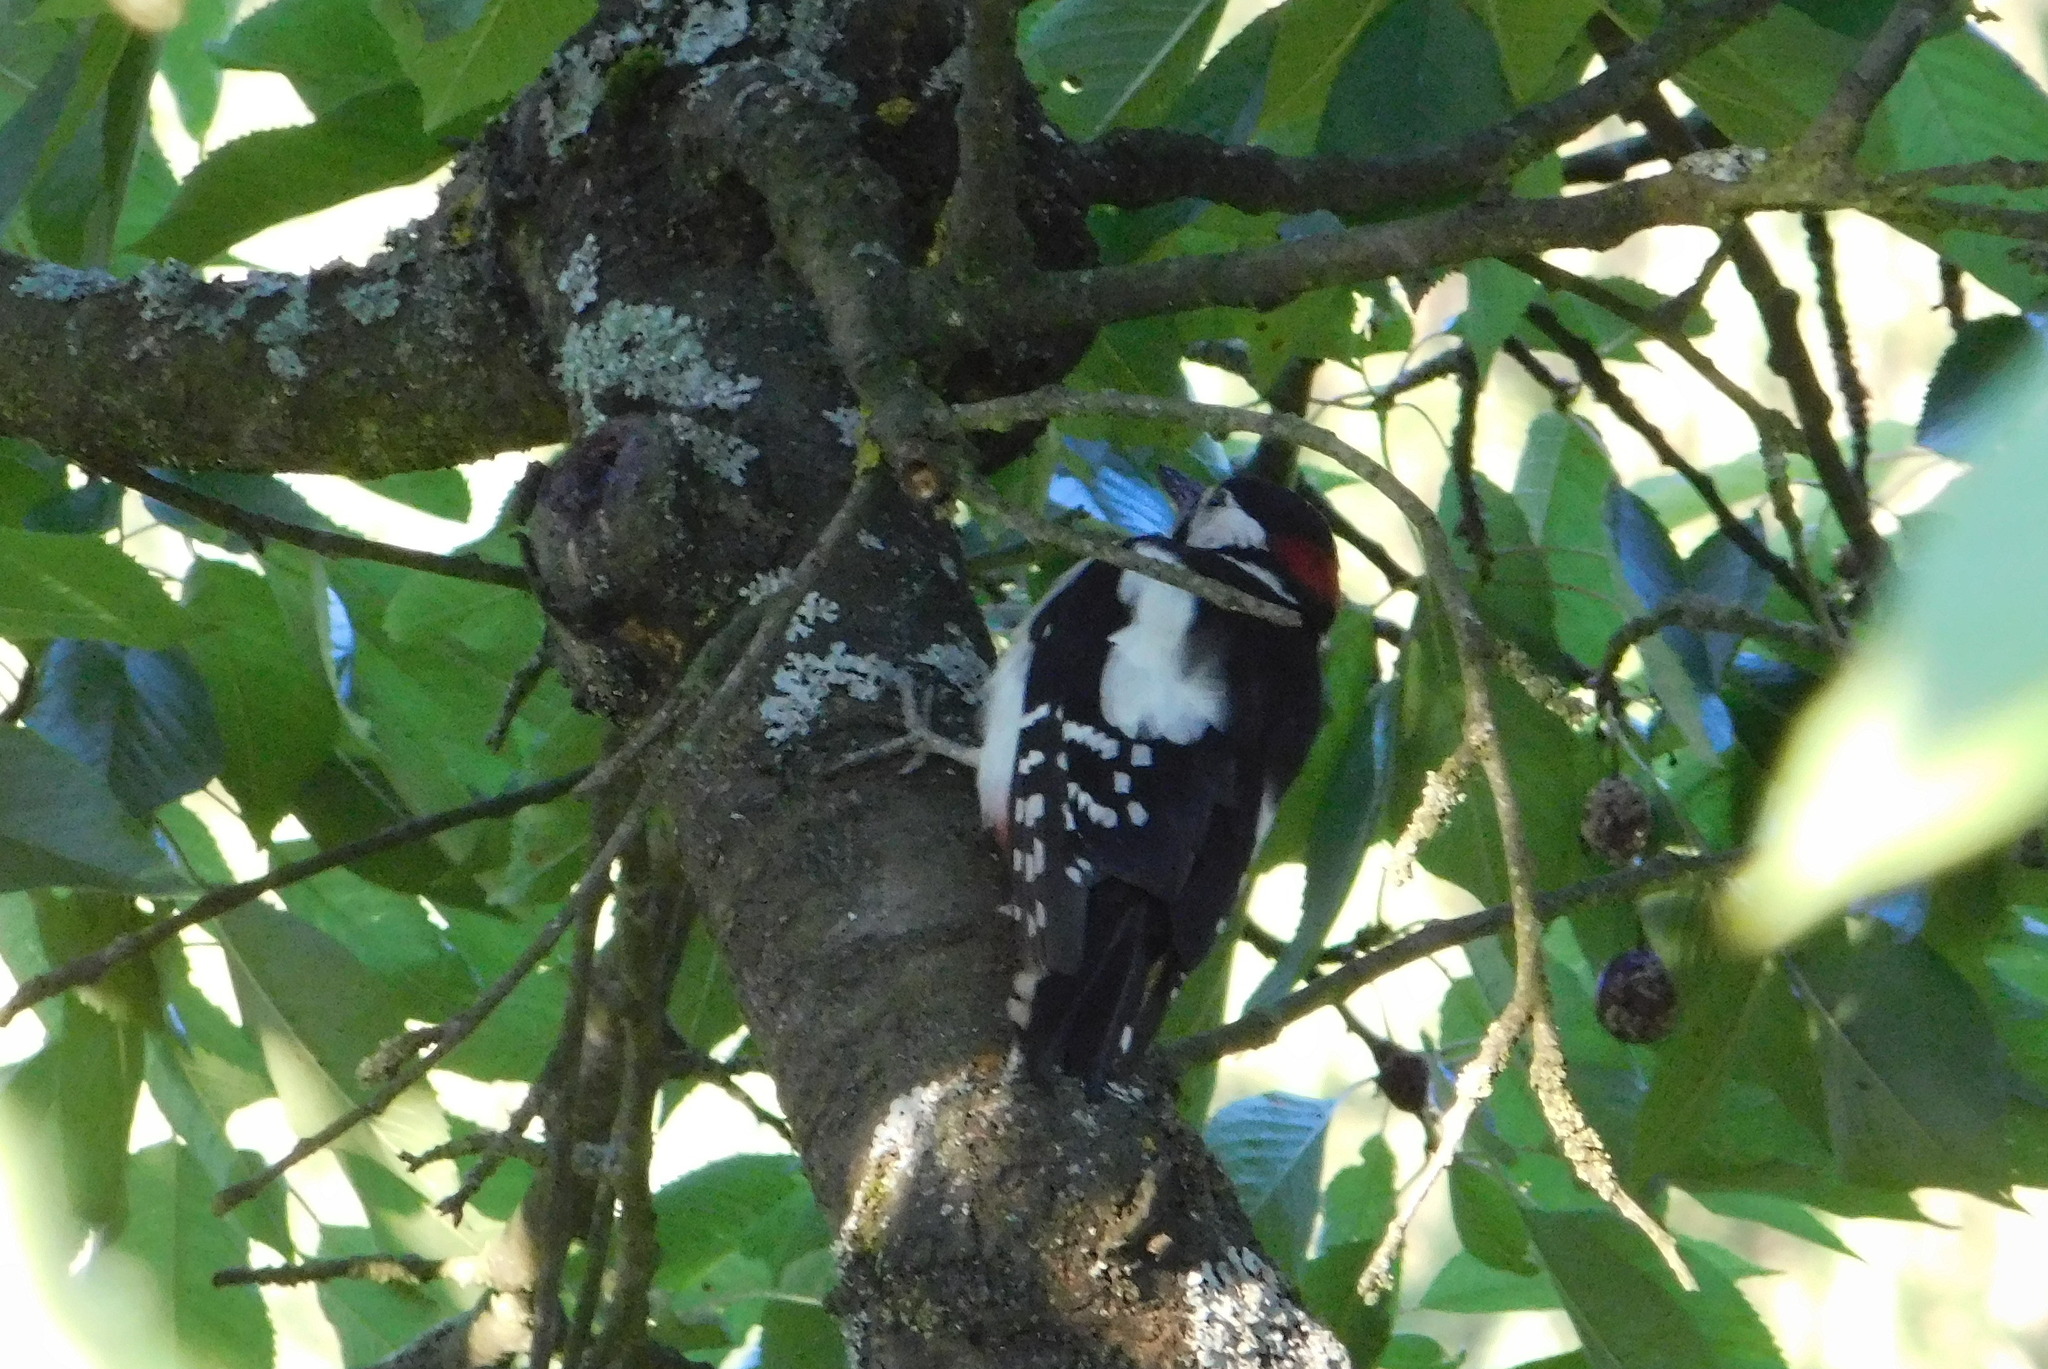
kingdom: Animalia
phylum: Chordata
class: Aves
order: Piciformes
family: Picidae
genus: Dendrocopos
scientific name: Dendrocopos major
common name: Great spotted woodpecker
